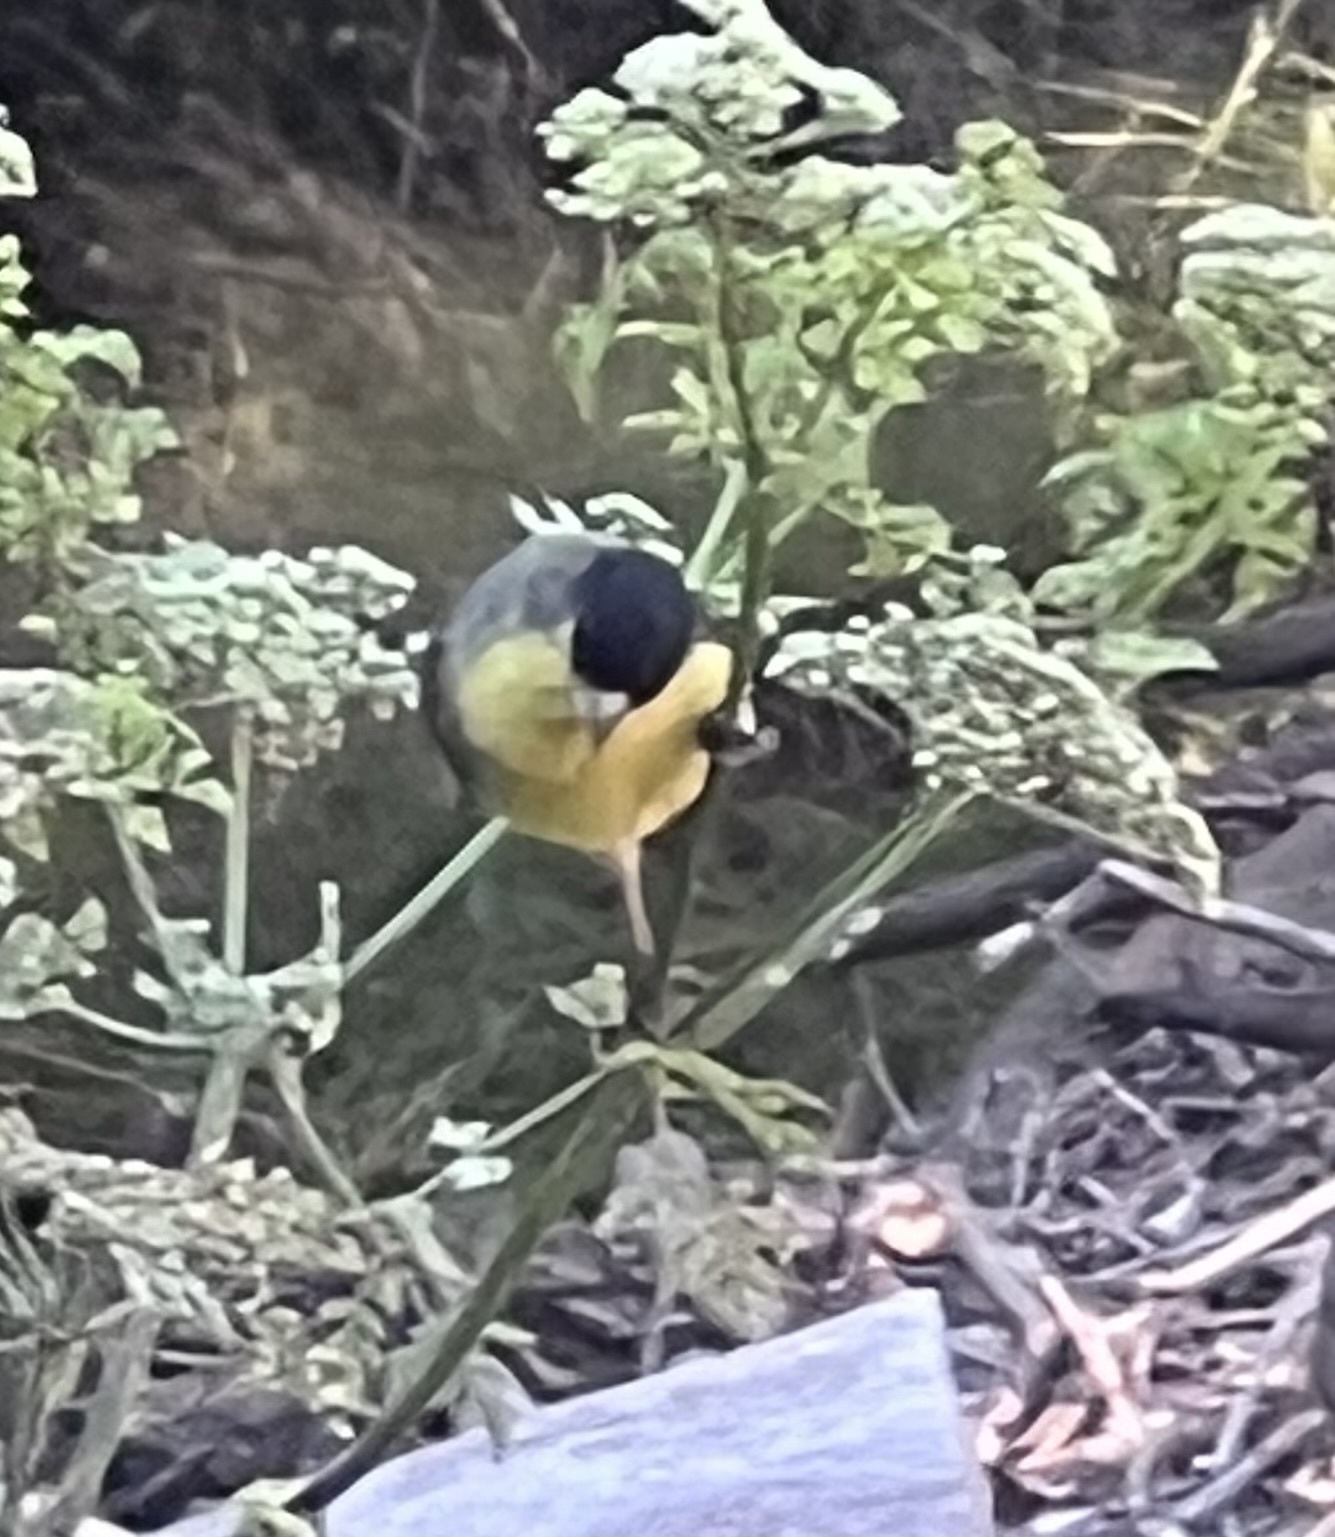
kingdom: Animalia
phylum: Chordata
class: Aves
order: Passeriformes
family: Fringillidae
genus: Spinus
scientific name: Spinus psaltria
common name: Lesser goldfinch
